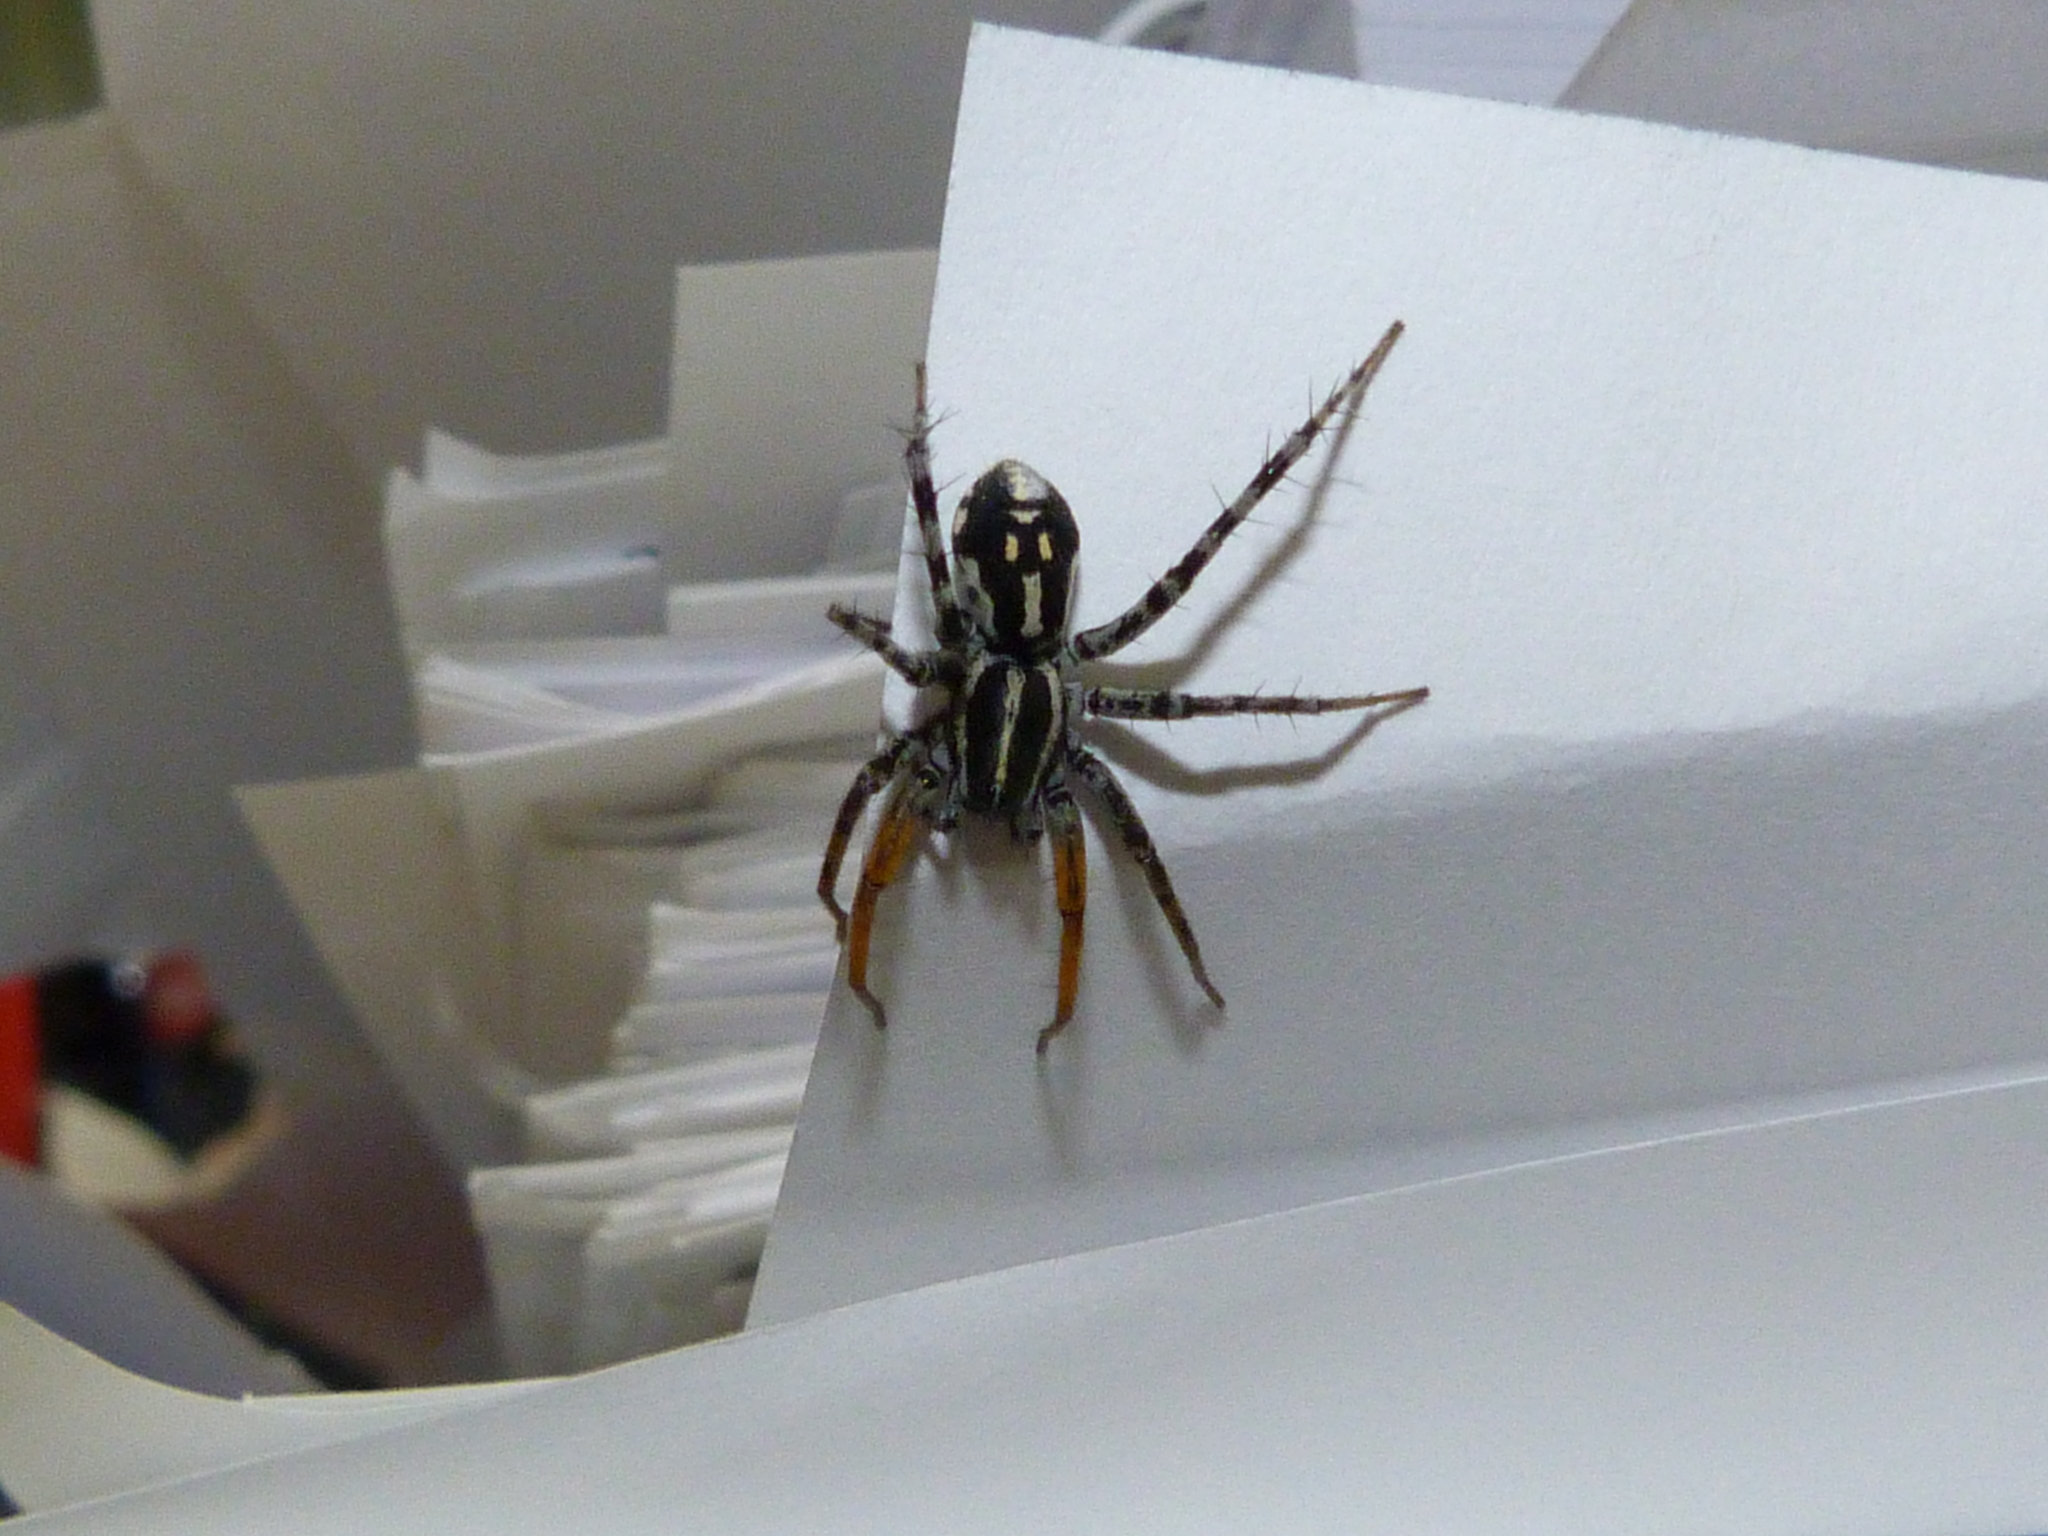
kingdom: Animalia
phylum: Arthropoda
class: Arachnida
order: Araneae
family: Corinnidae
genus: Nyssus
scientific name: Nyssus coloripes
